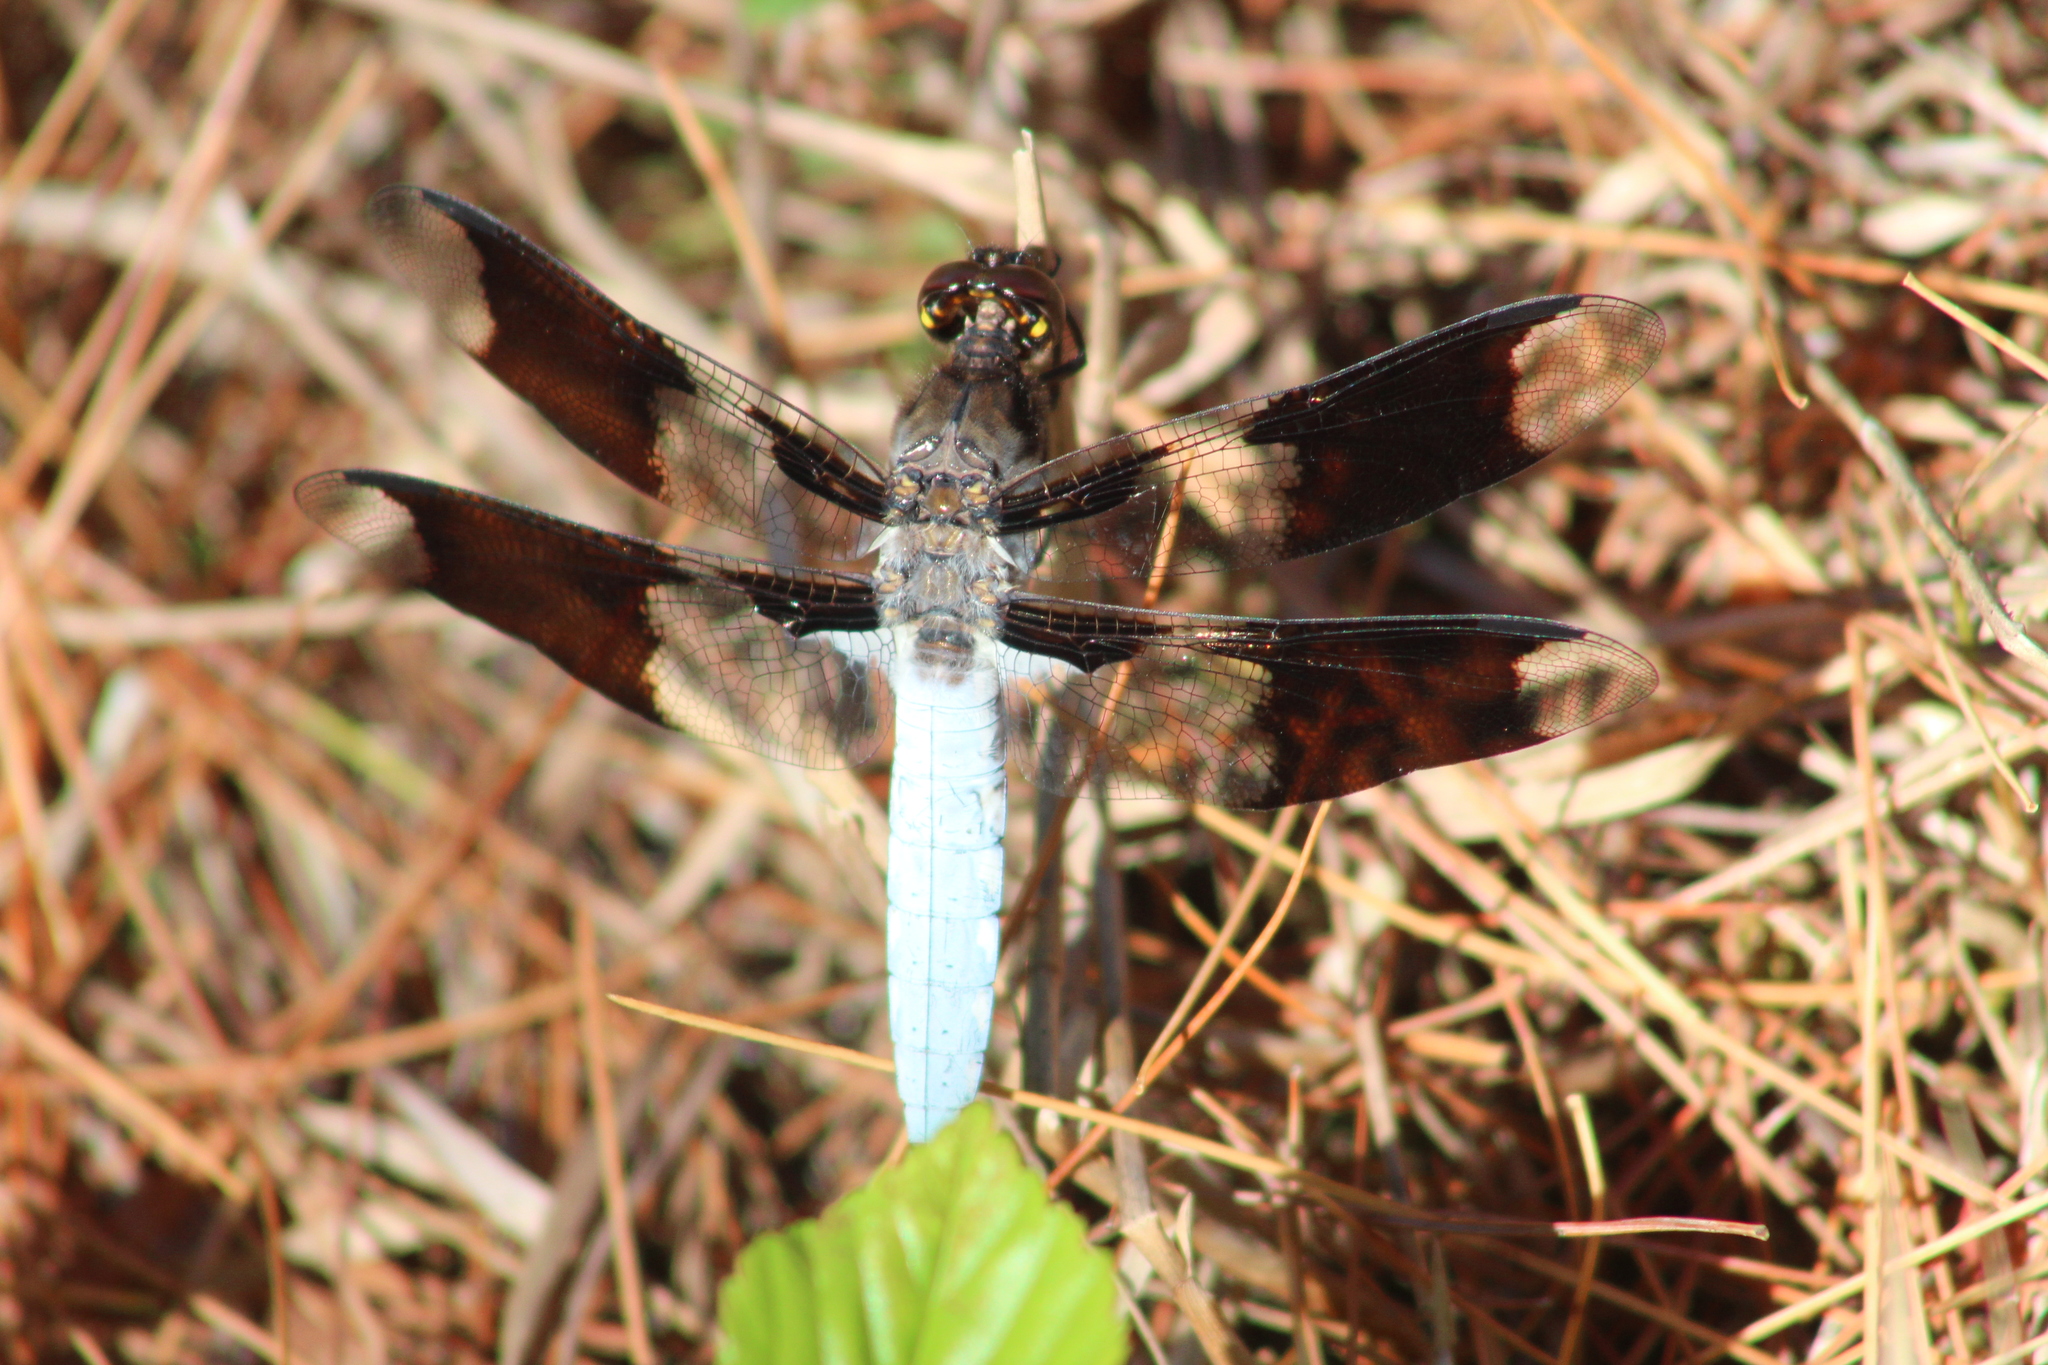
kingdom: Animalia
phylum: Arthropoda
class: Insecta
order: Odonata
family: Libellulidae
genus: Plathemis
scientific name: Plathemis lydia
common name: Common whitetail
